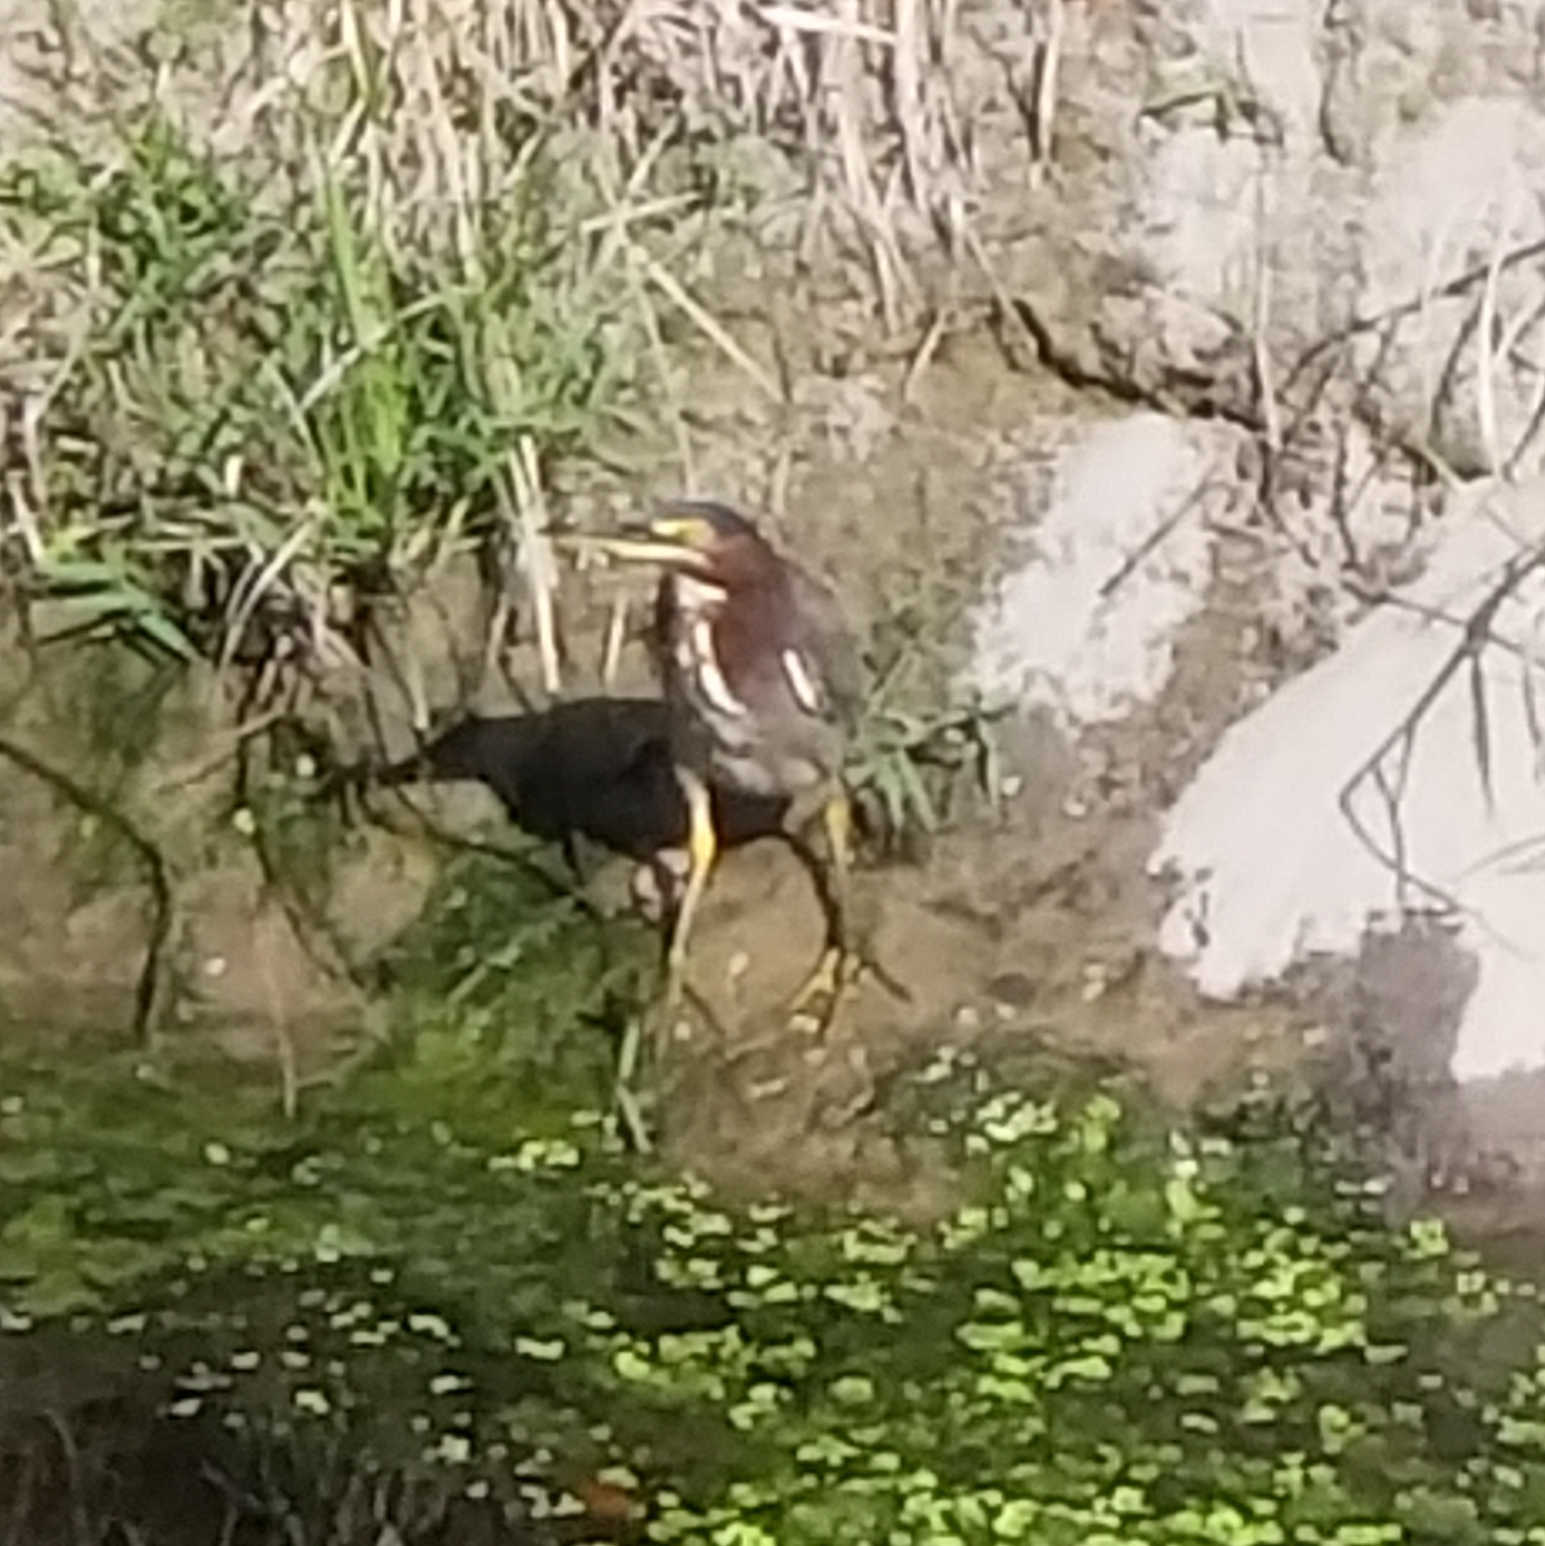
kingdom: Animalia
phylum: Chordata
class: Aves
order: Pelecaniformes
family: Ardeidae
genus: Butorides
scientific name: Butorides virescens
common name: Green heron
